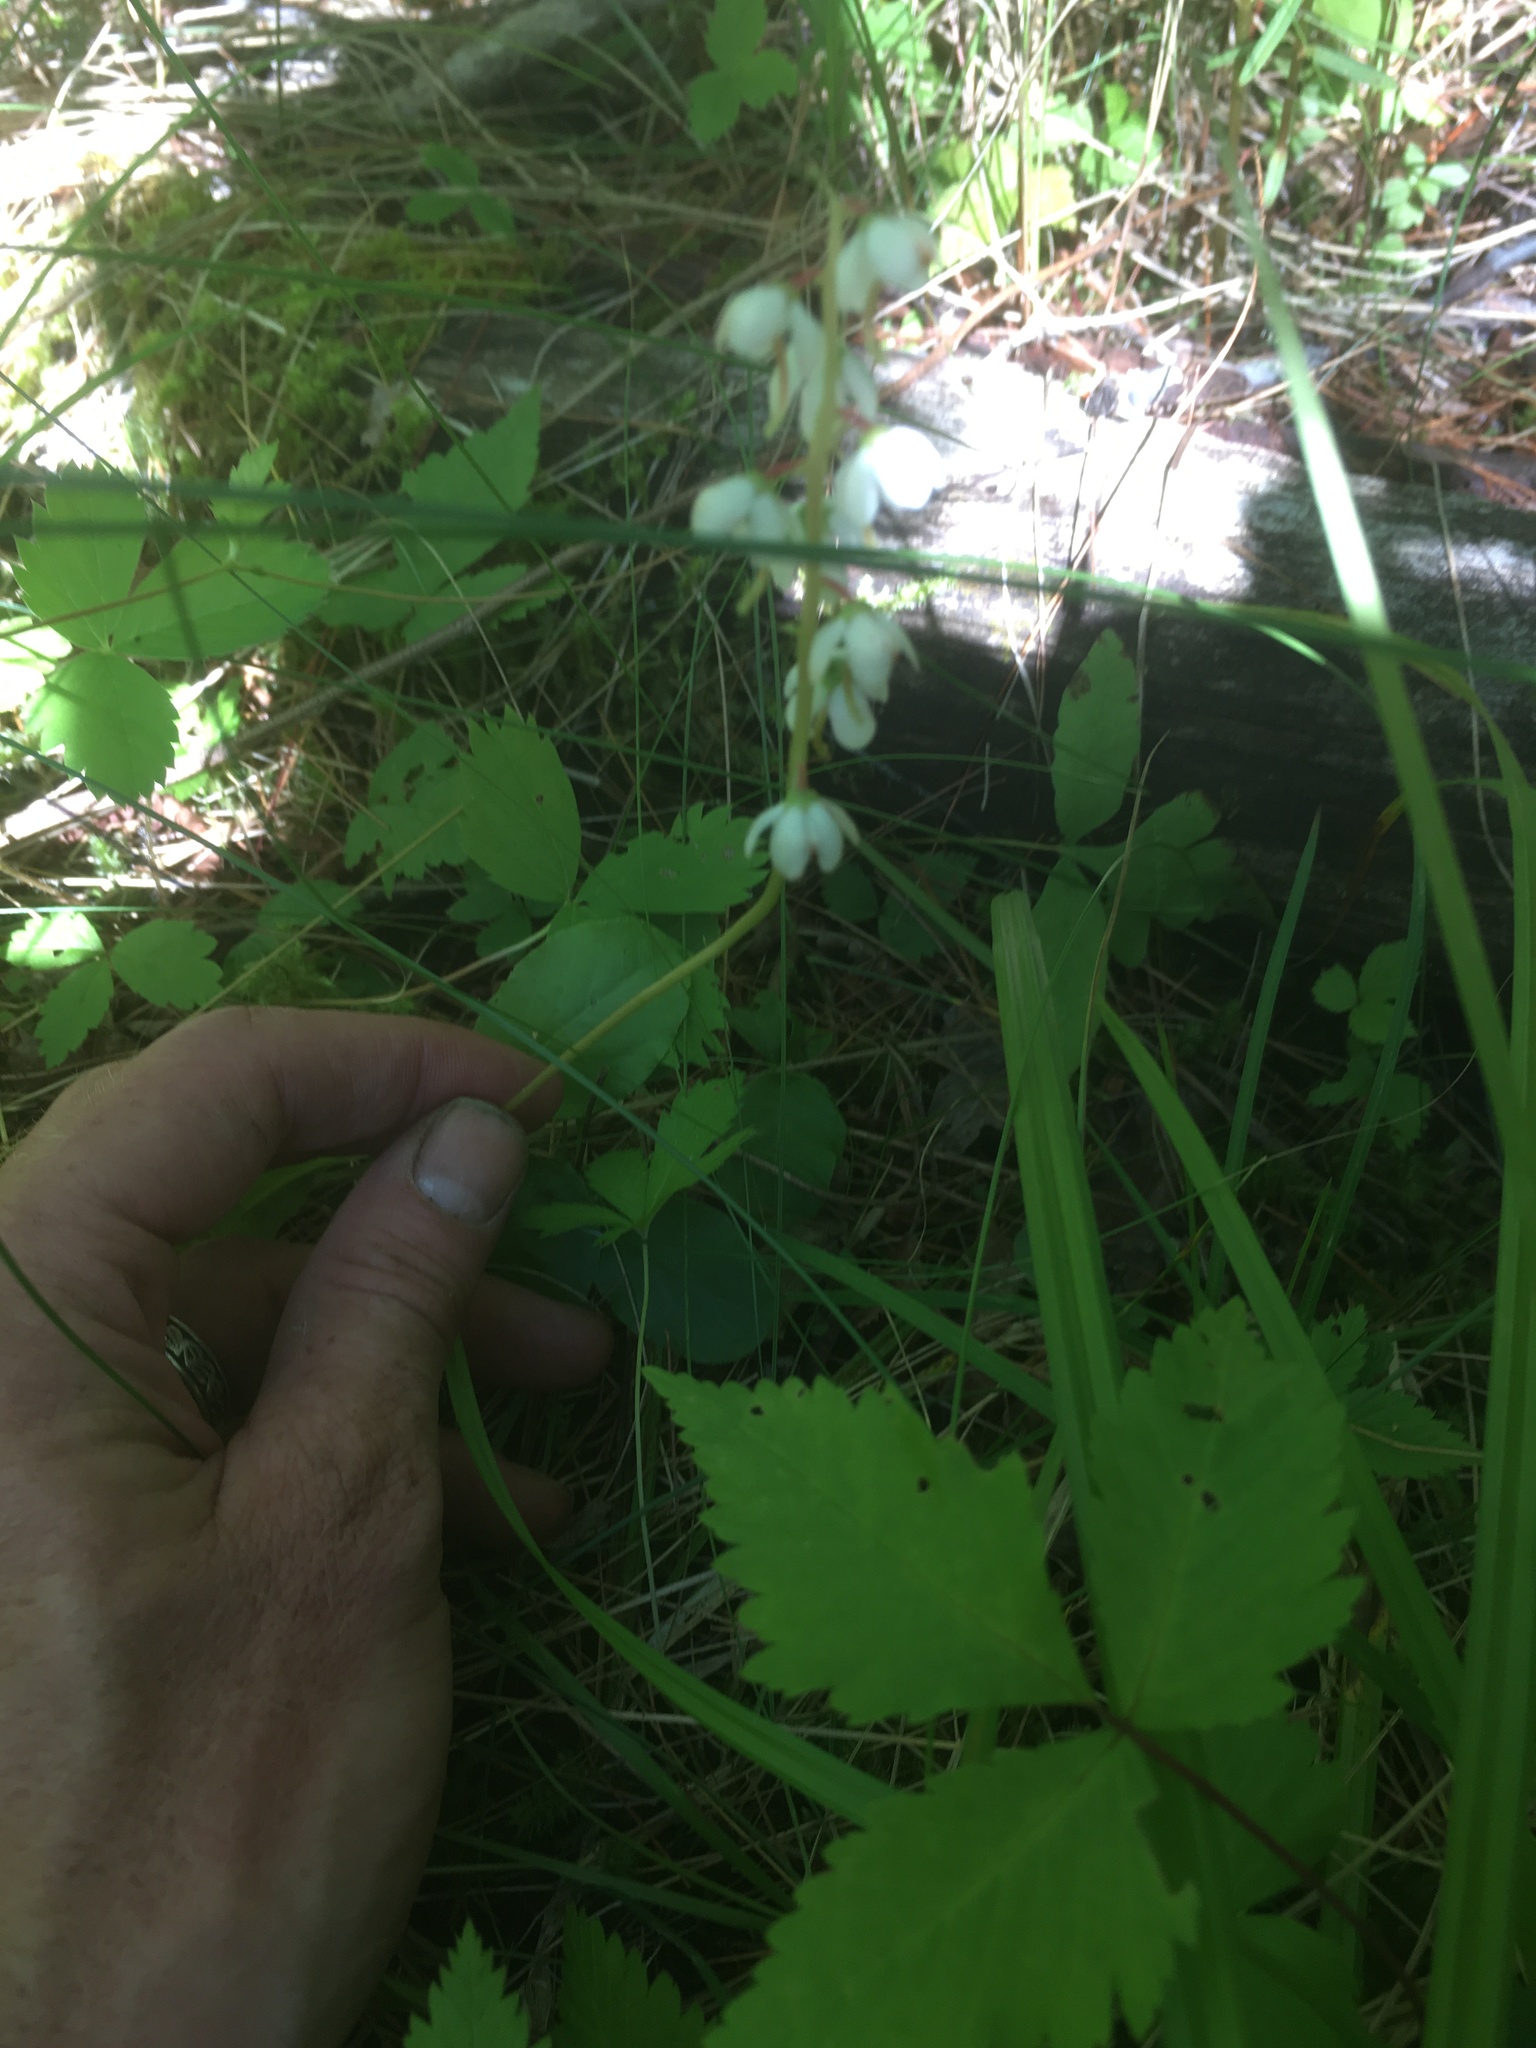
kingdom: Plantae
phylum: Tracheophyta
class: Magnoliopsida
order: Ericales
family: Ericaceae
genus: Pyrola
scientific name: Pyrola elliptica
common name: Shinleaf
